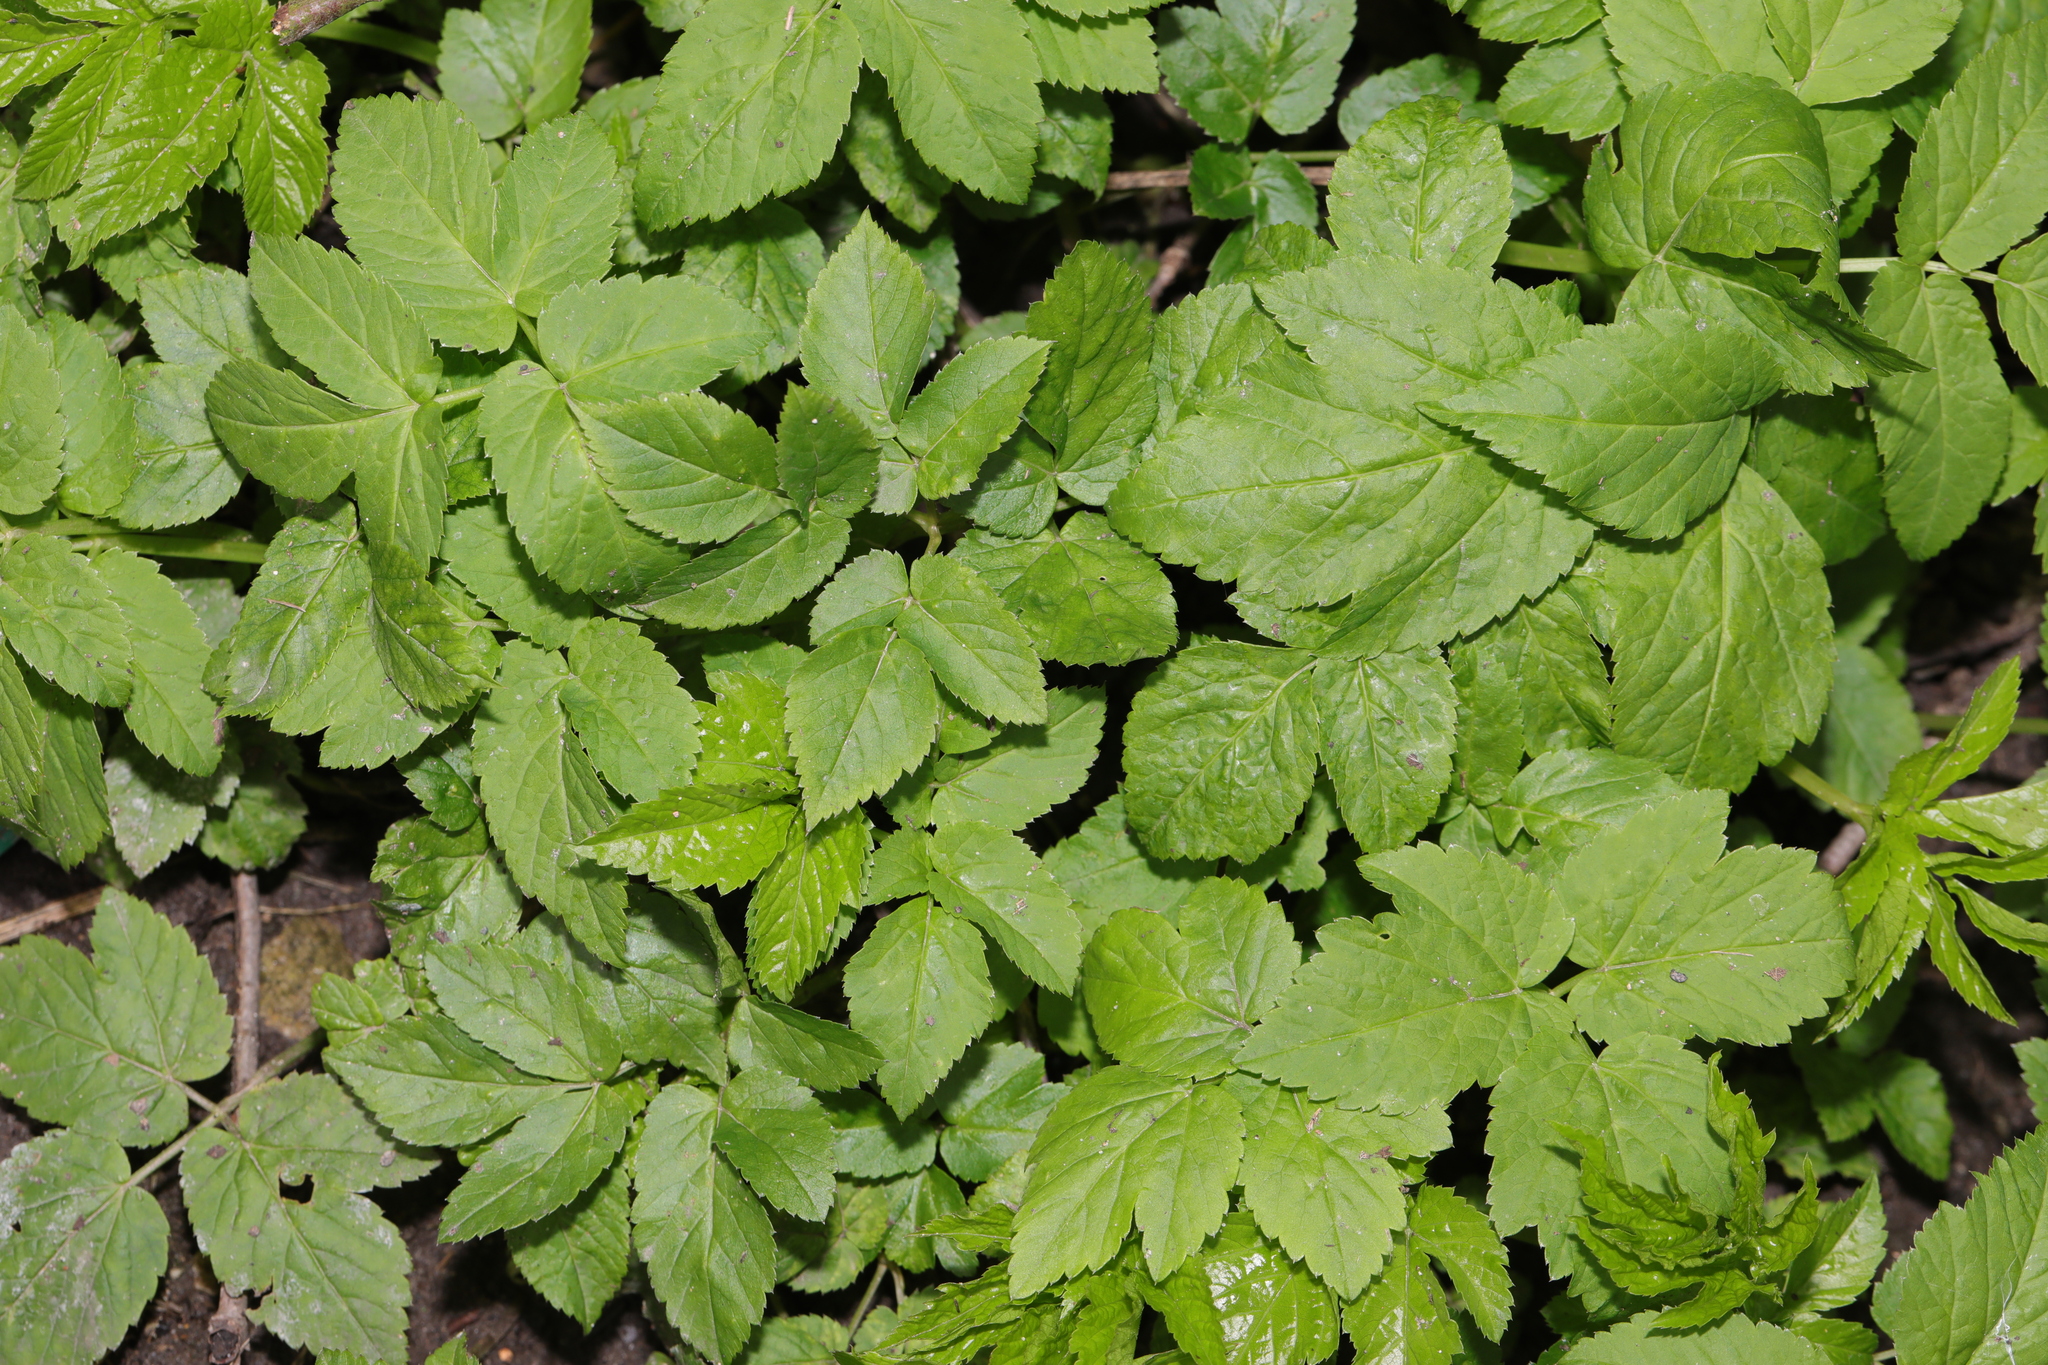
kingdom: Plantae
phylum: Tracheophyta
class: Magnoliopsida
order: Apiales
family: Apiaceae
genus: Aegopodium
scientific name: Aegopodium podagraria
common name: Ground-elder
